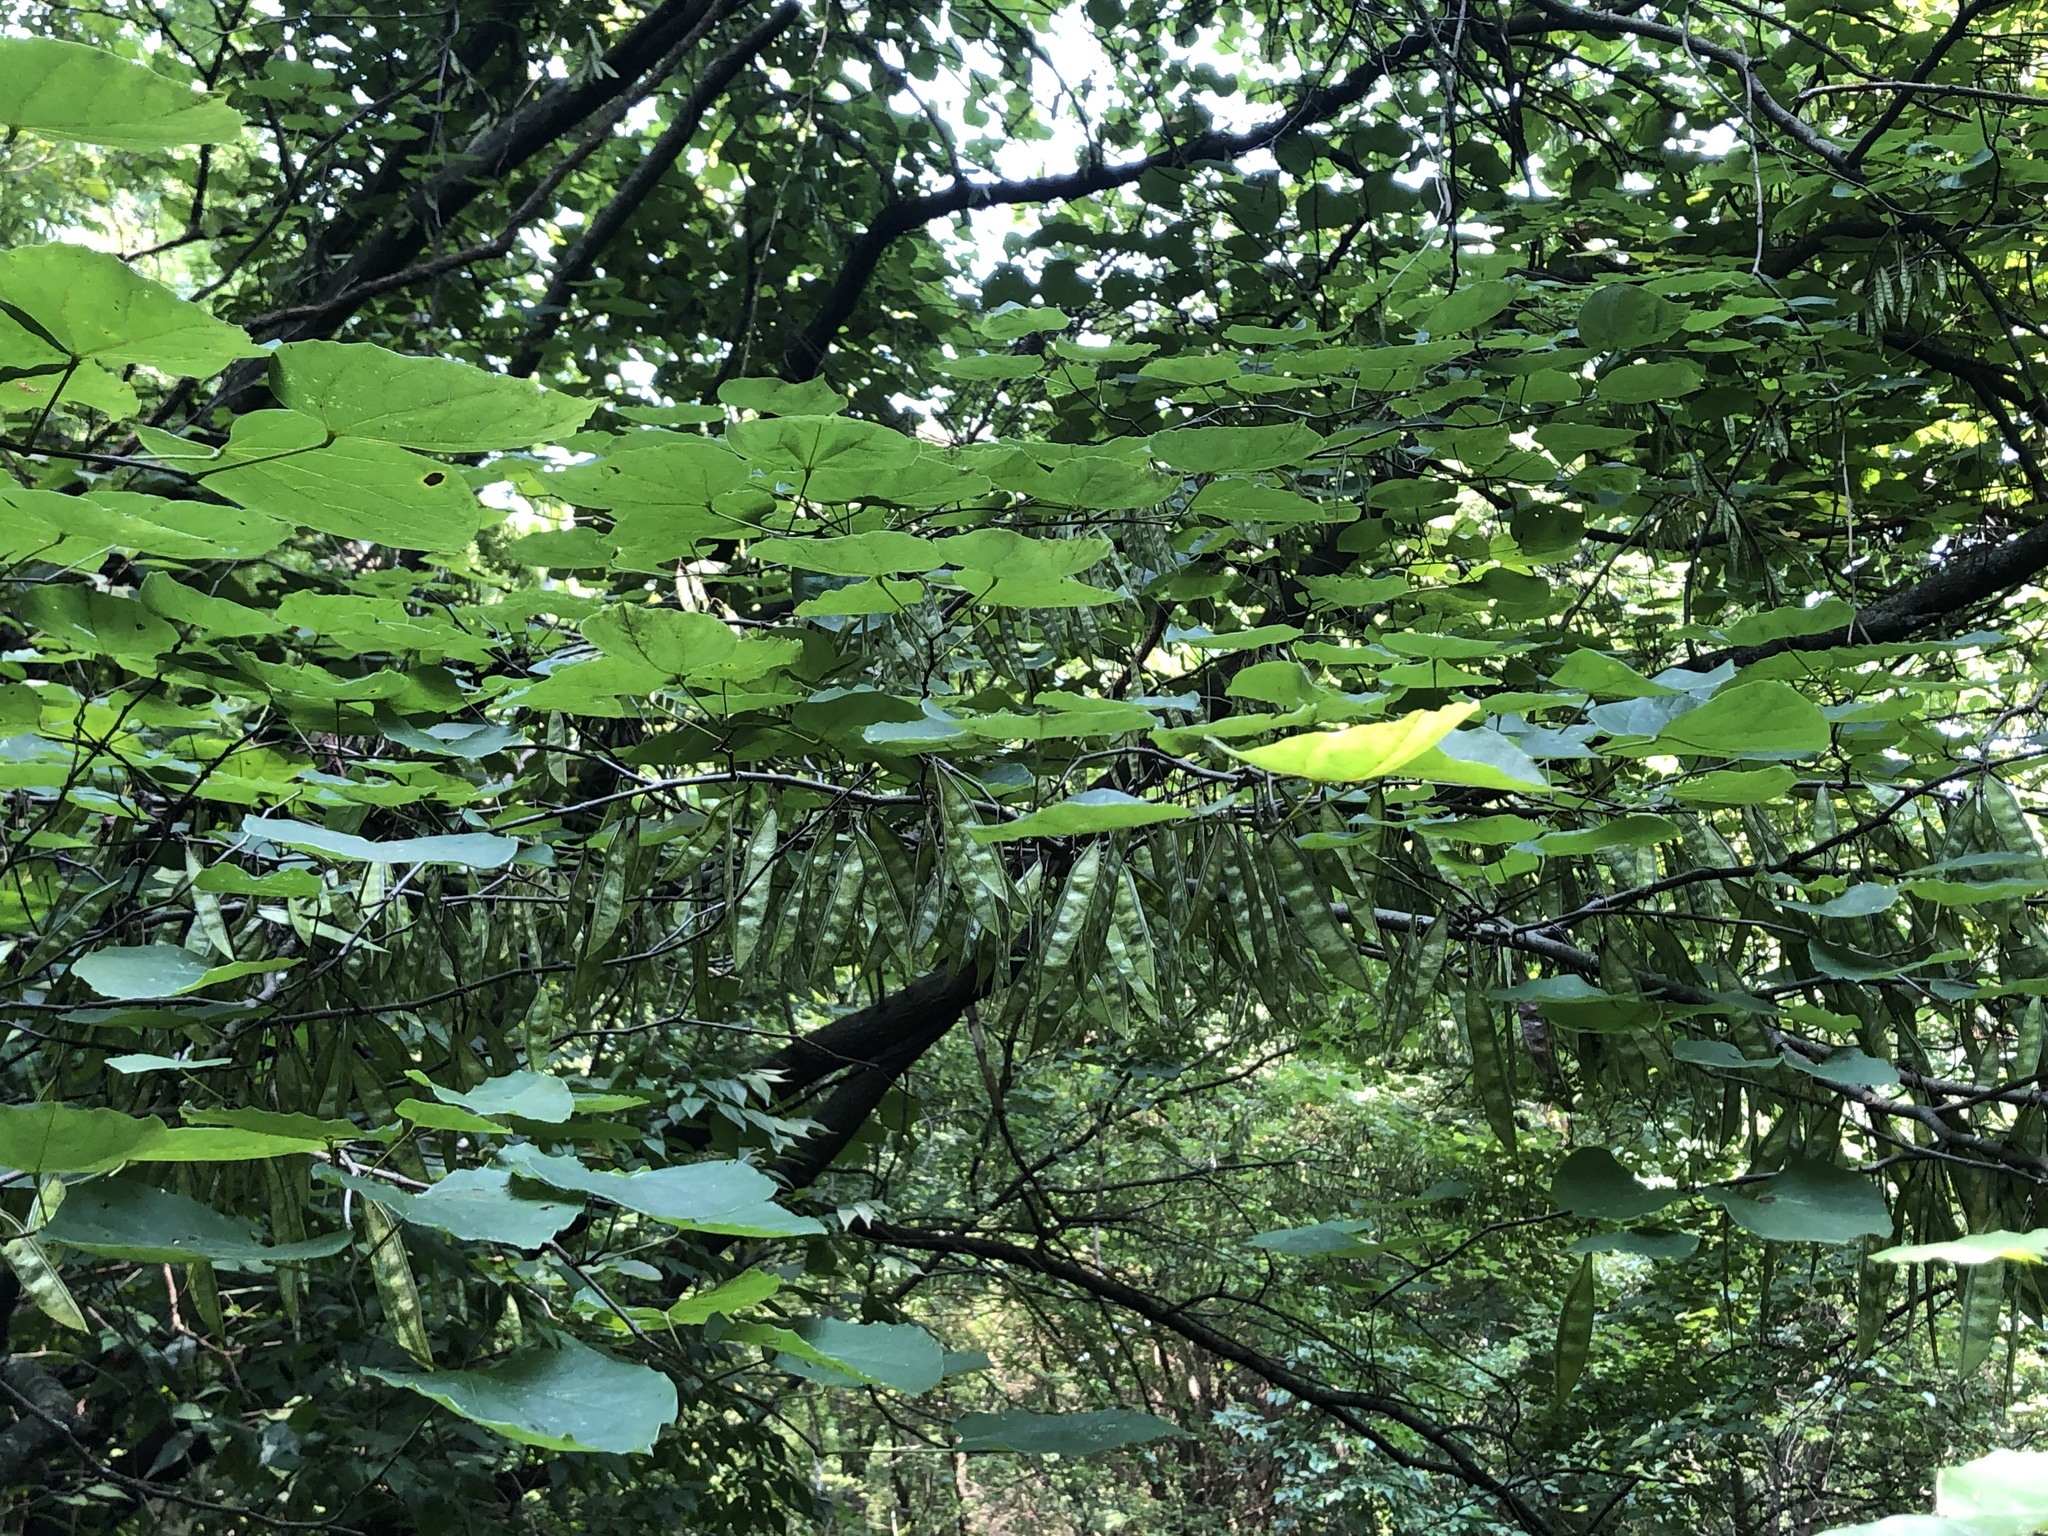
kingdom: Plantae
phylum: Tracheophyta
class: Magnoliopsida
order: Fabales
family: Fabaceae
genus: Cercis
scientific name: Cercis canadensis
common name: Eastern redbud
